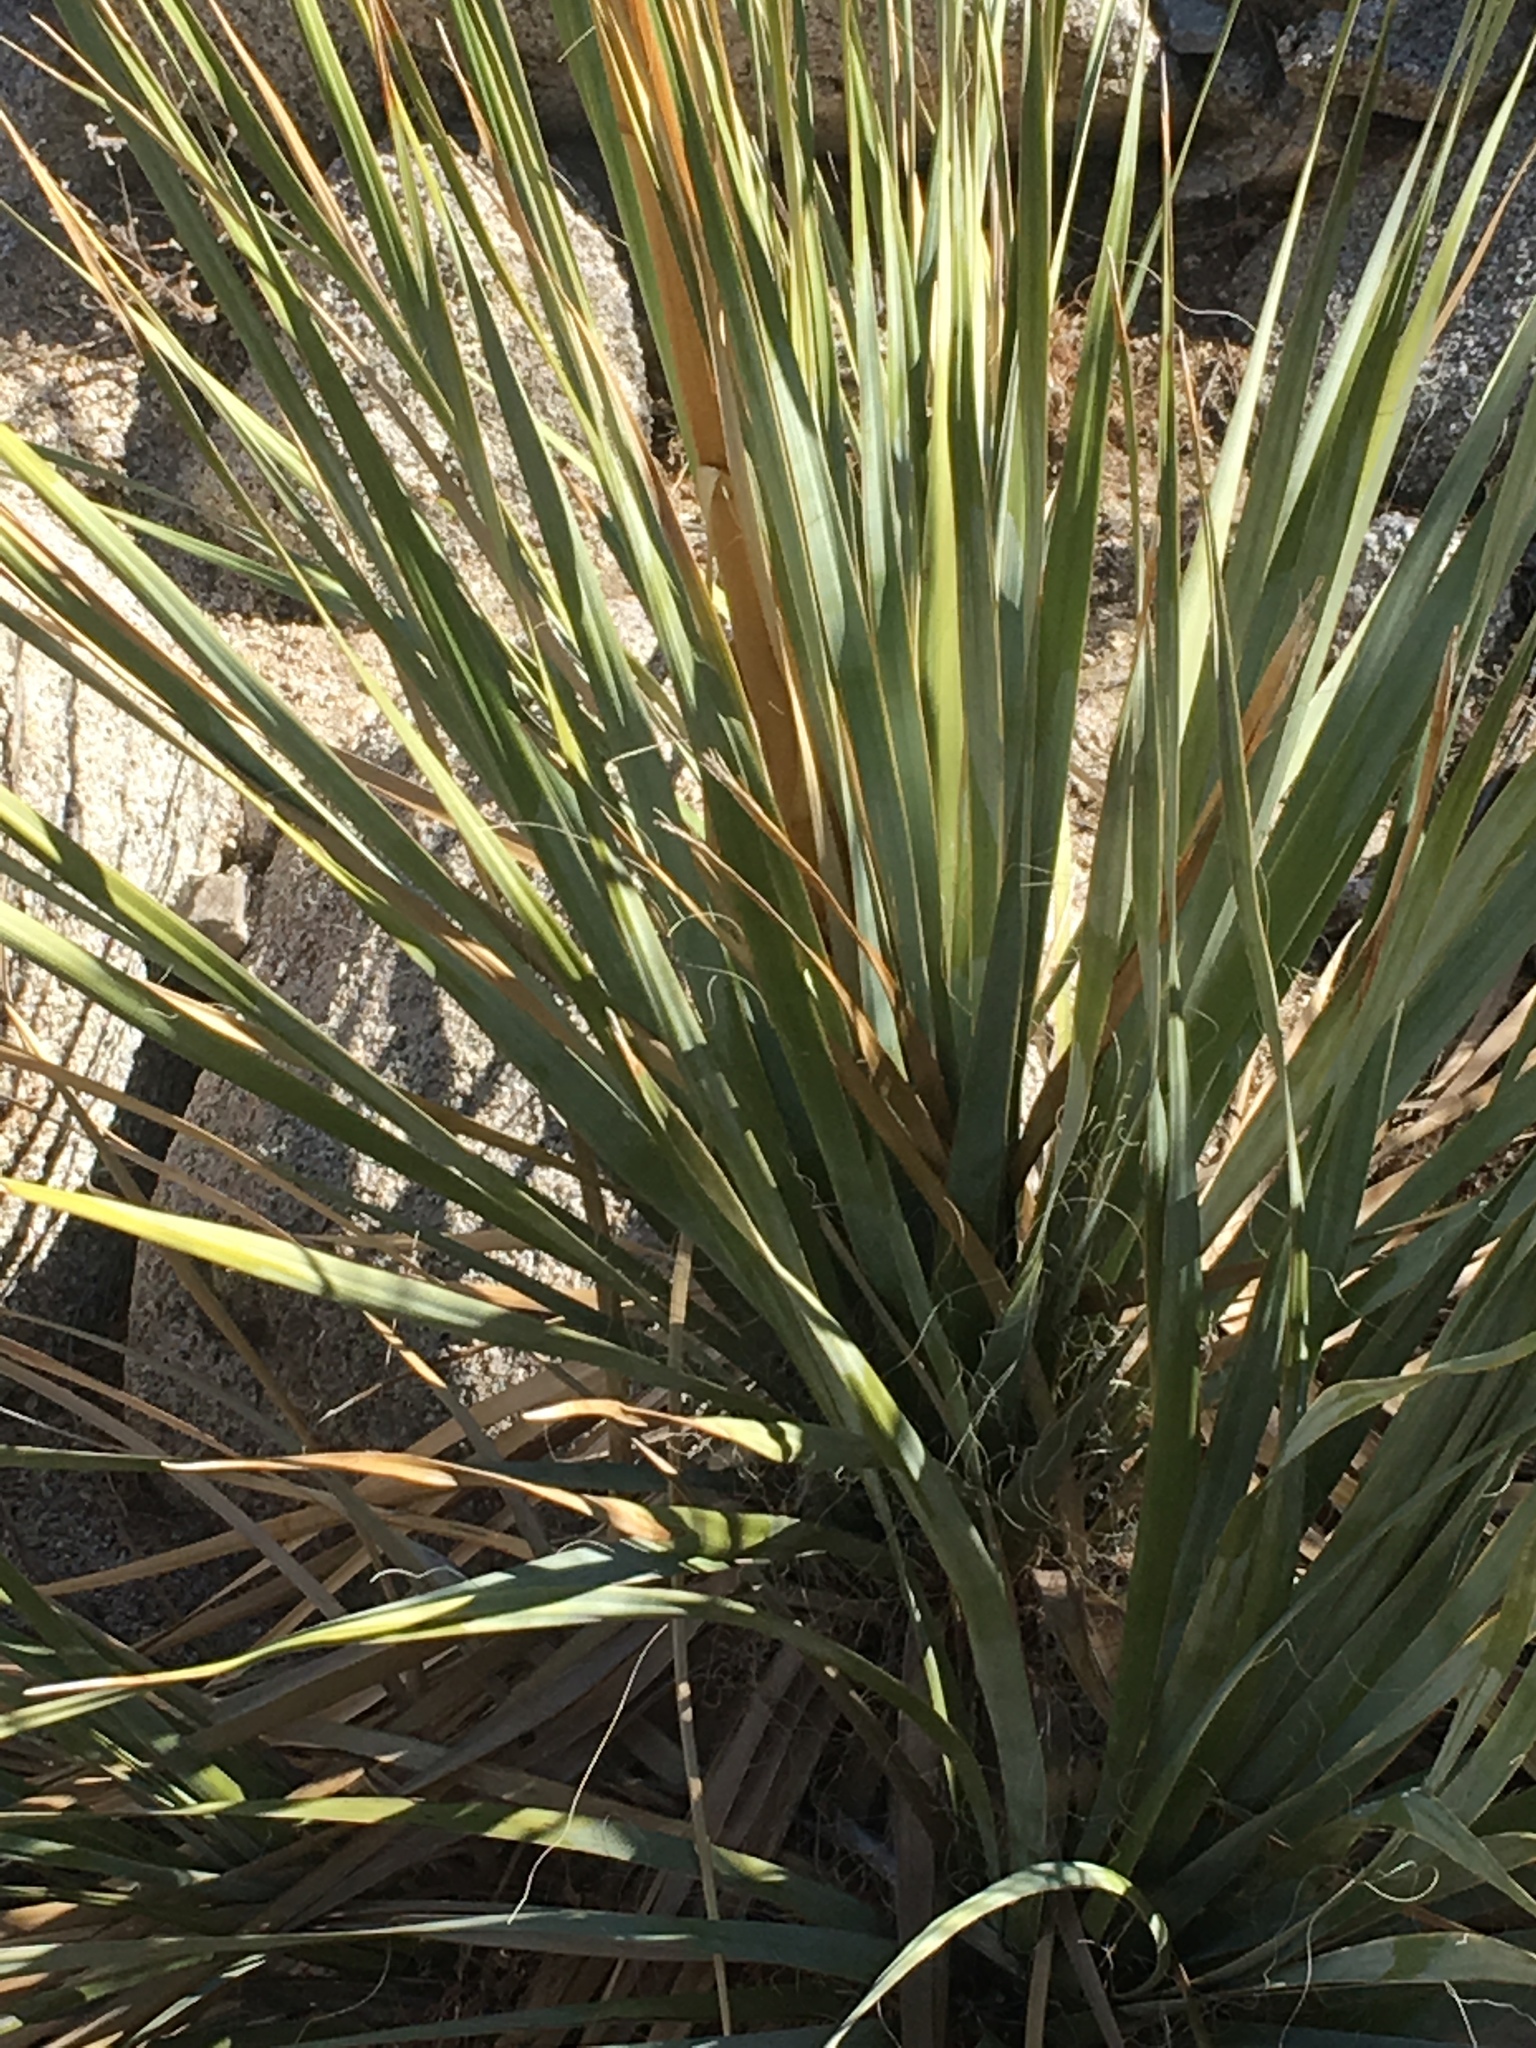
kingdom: Plantae
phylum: Tracheophyta
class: Liliopsida
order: Asparagales
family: Asparagaceae
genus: Nolina
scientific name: Nolina bigelovii
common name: Bigelow bear-grass
